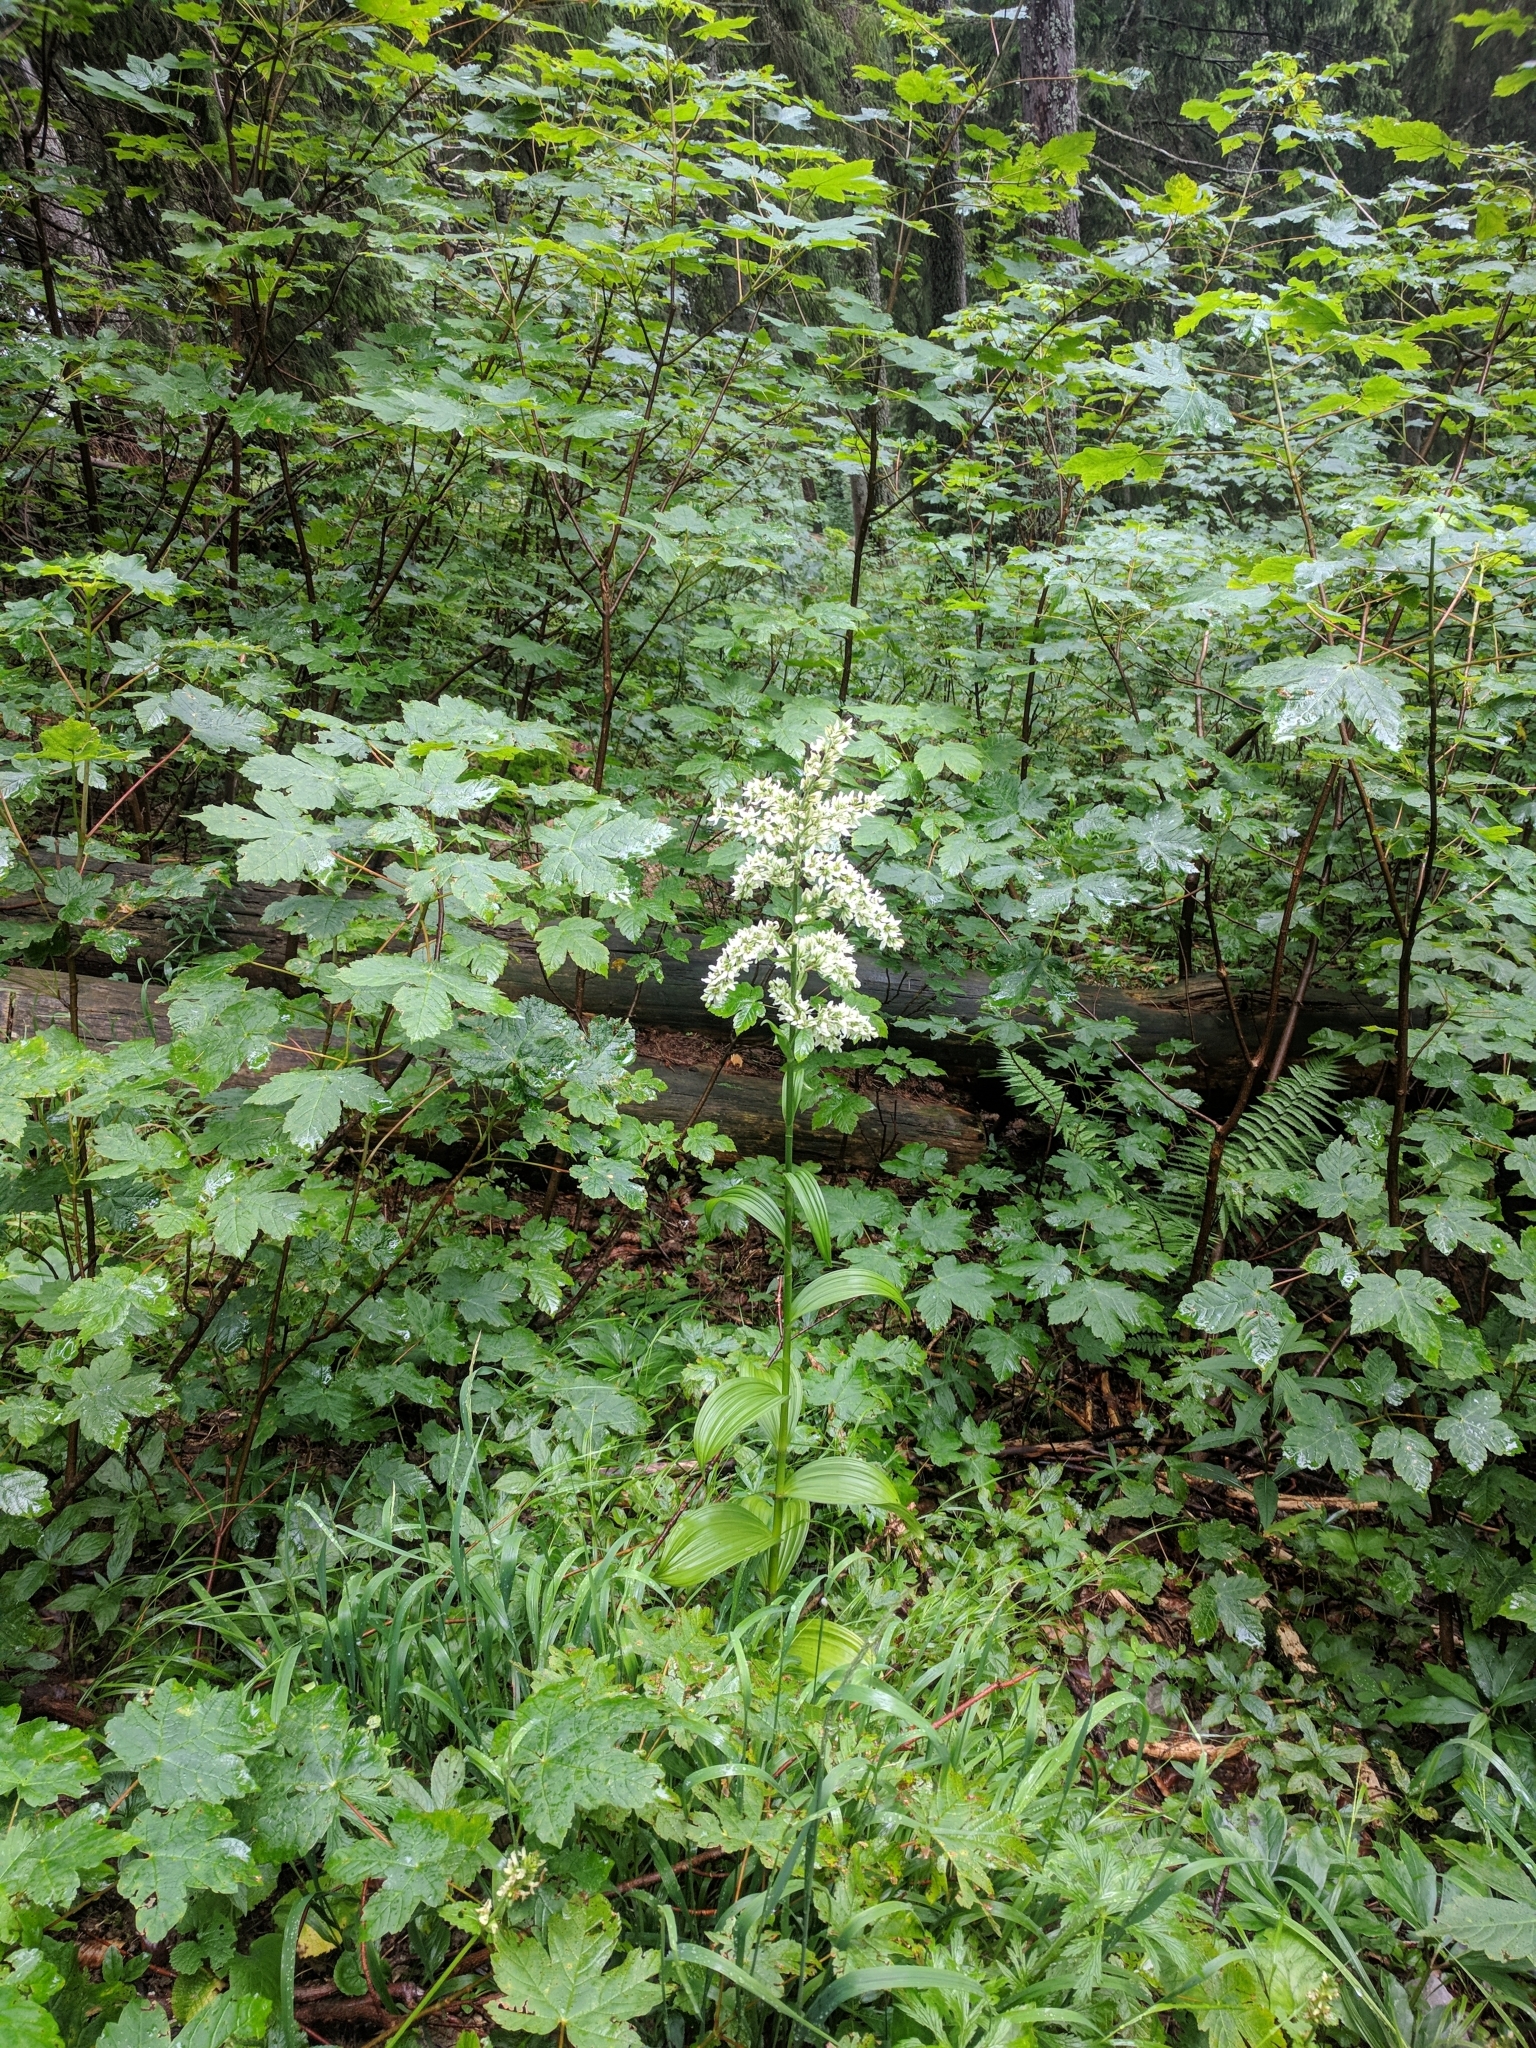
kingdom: Plantae
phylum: Tracheophyta
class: Liliopsida
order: Liliales
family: Melanthiaceae
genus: Veratrum
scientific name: Veratrum album
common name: White veratrum
